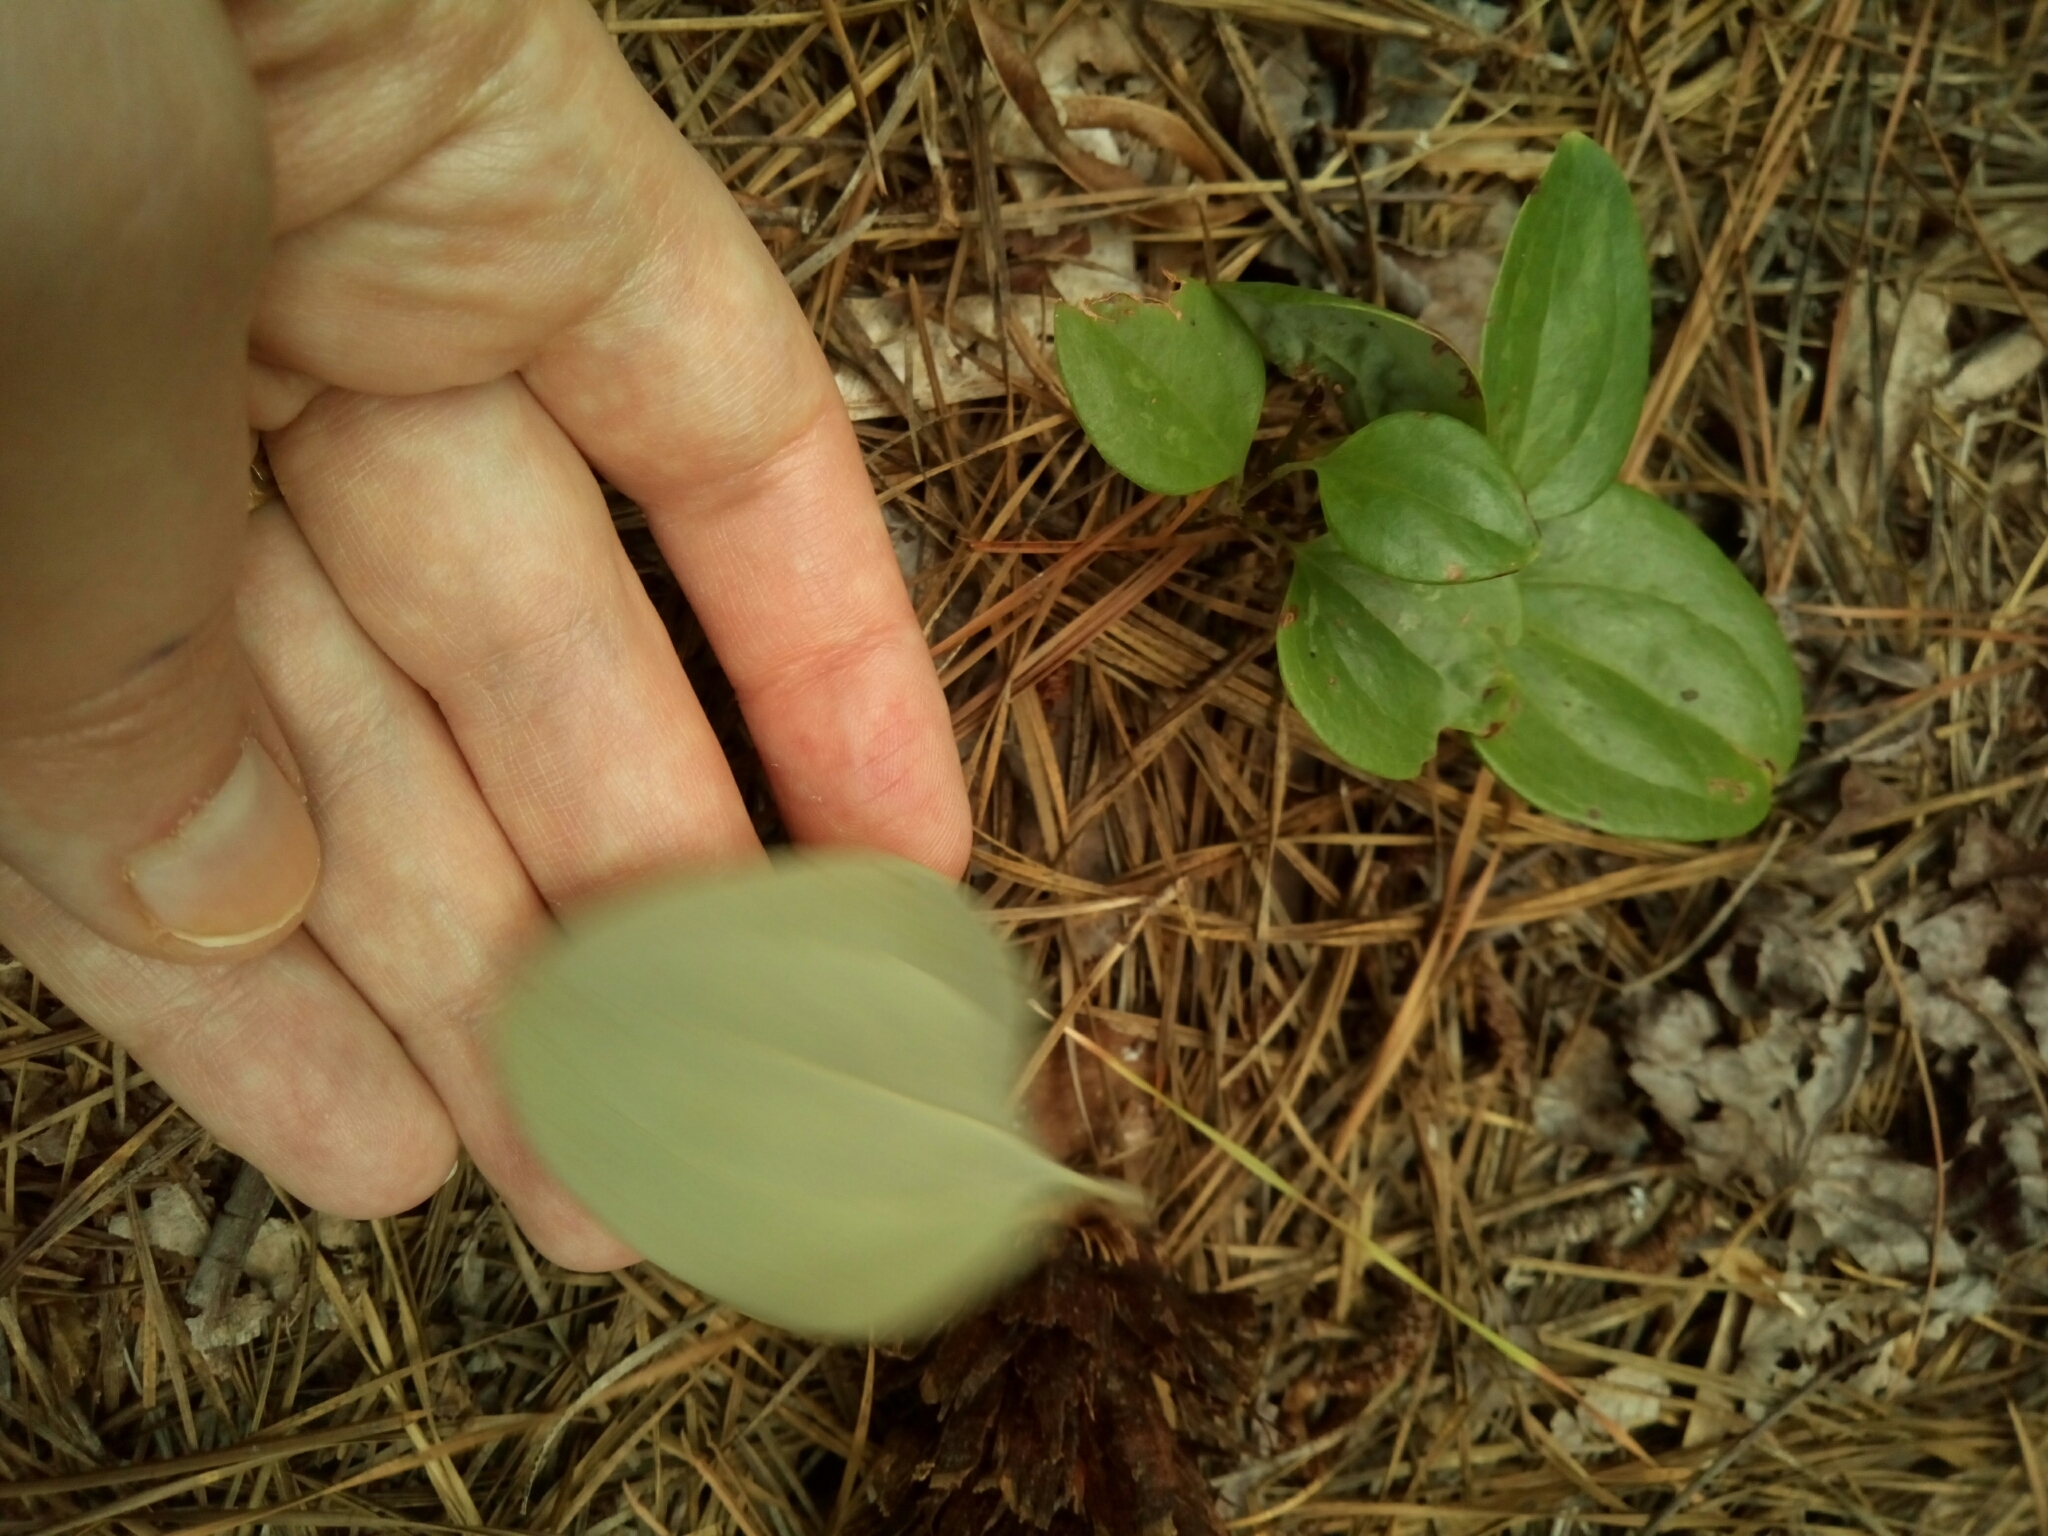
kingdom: Plantae
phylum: Tracheophyta
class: Liliopsida
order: Liliales
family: Smilacaceae
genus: Smilax
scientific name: Smilax glauca
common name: Cat greenbrier
